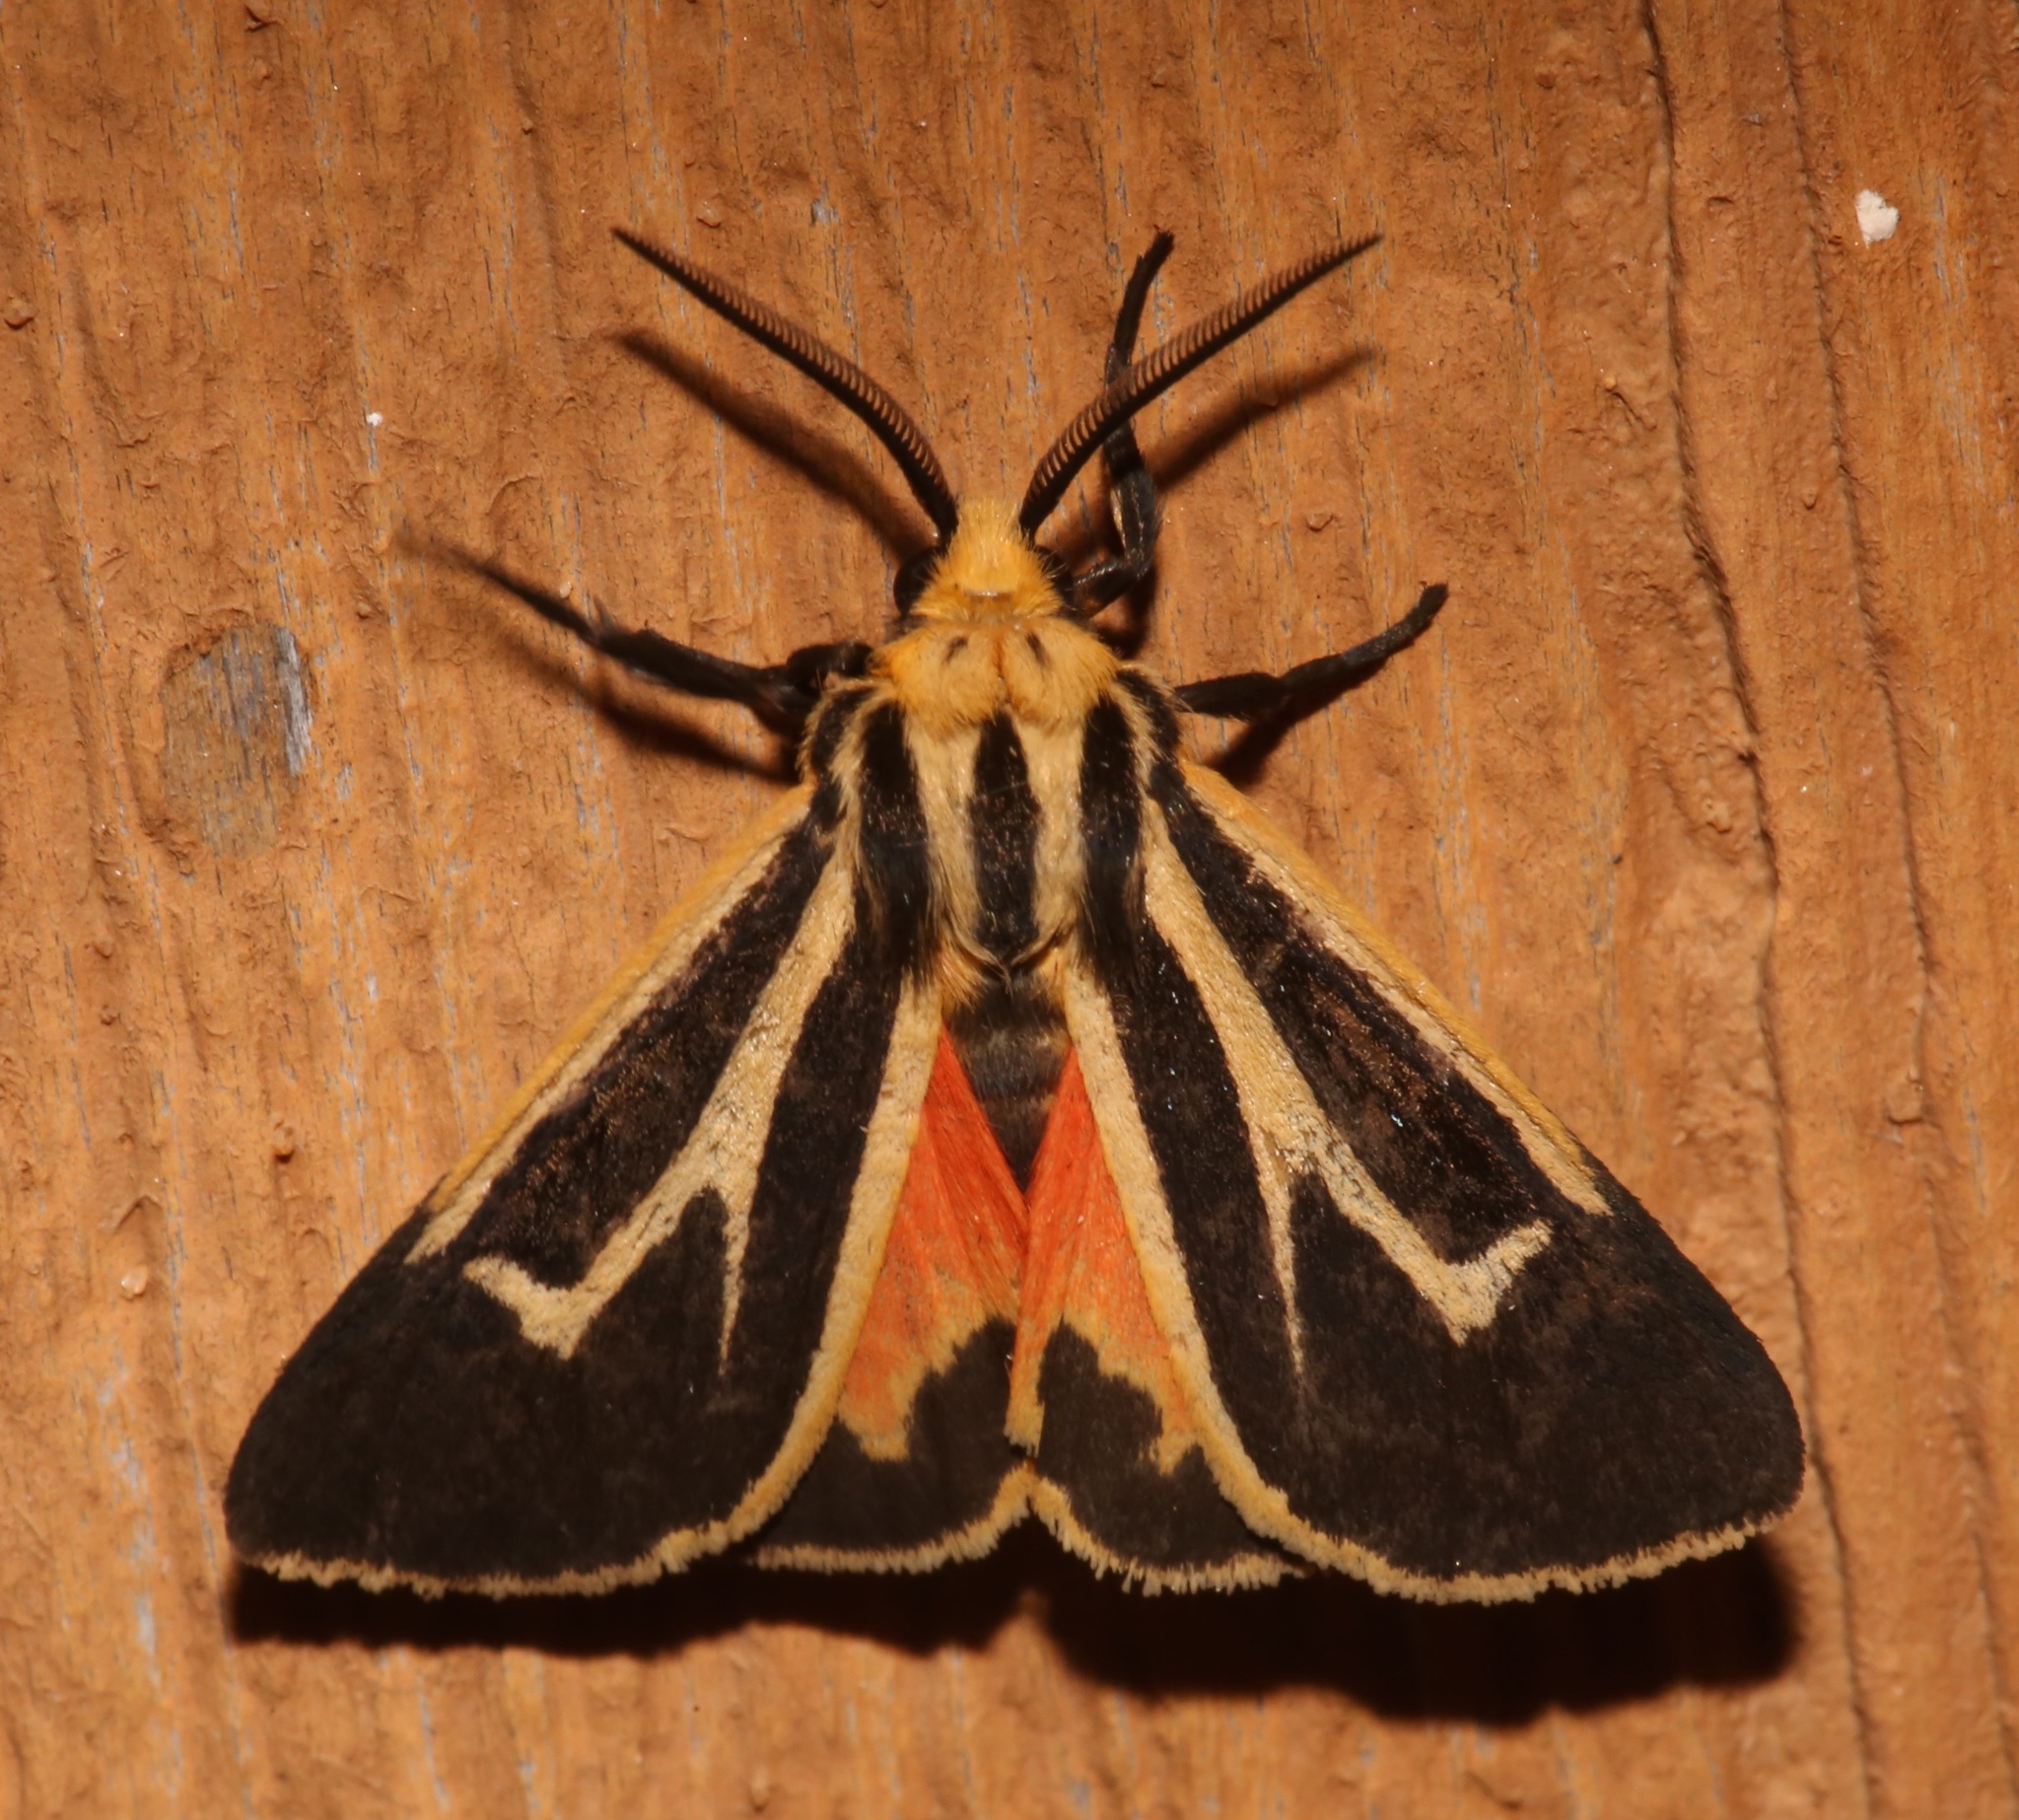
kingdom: Animalia
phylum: Arthropoda
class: Insecta
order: Lepidoptera
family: Erebidae
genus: Apantesis
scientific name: Apantesis vittata
